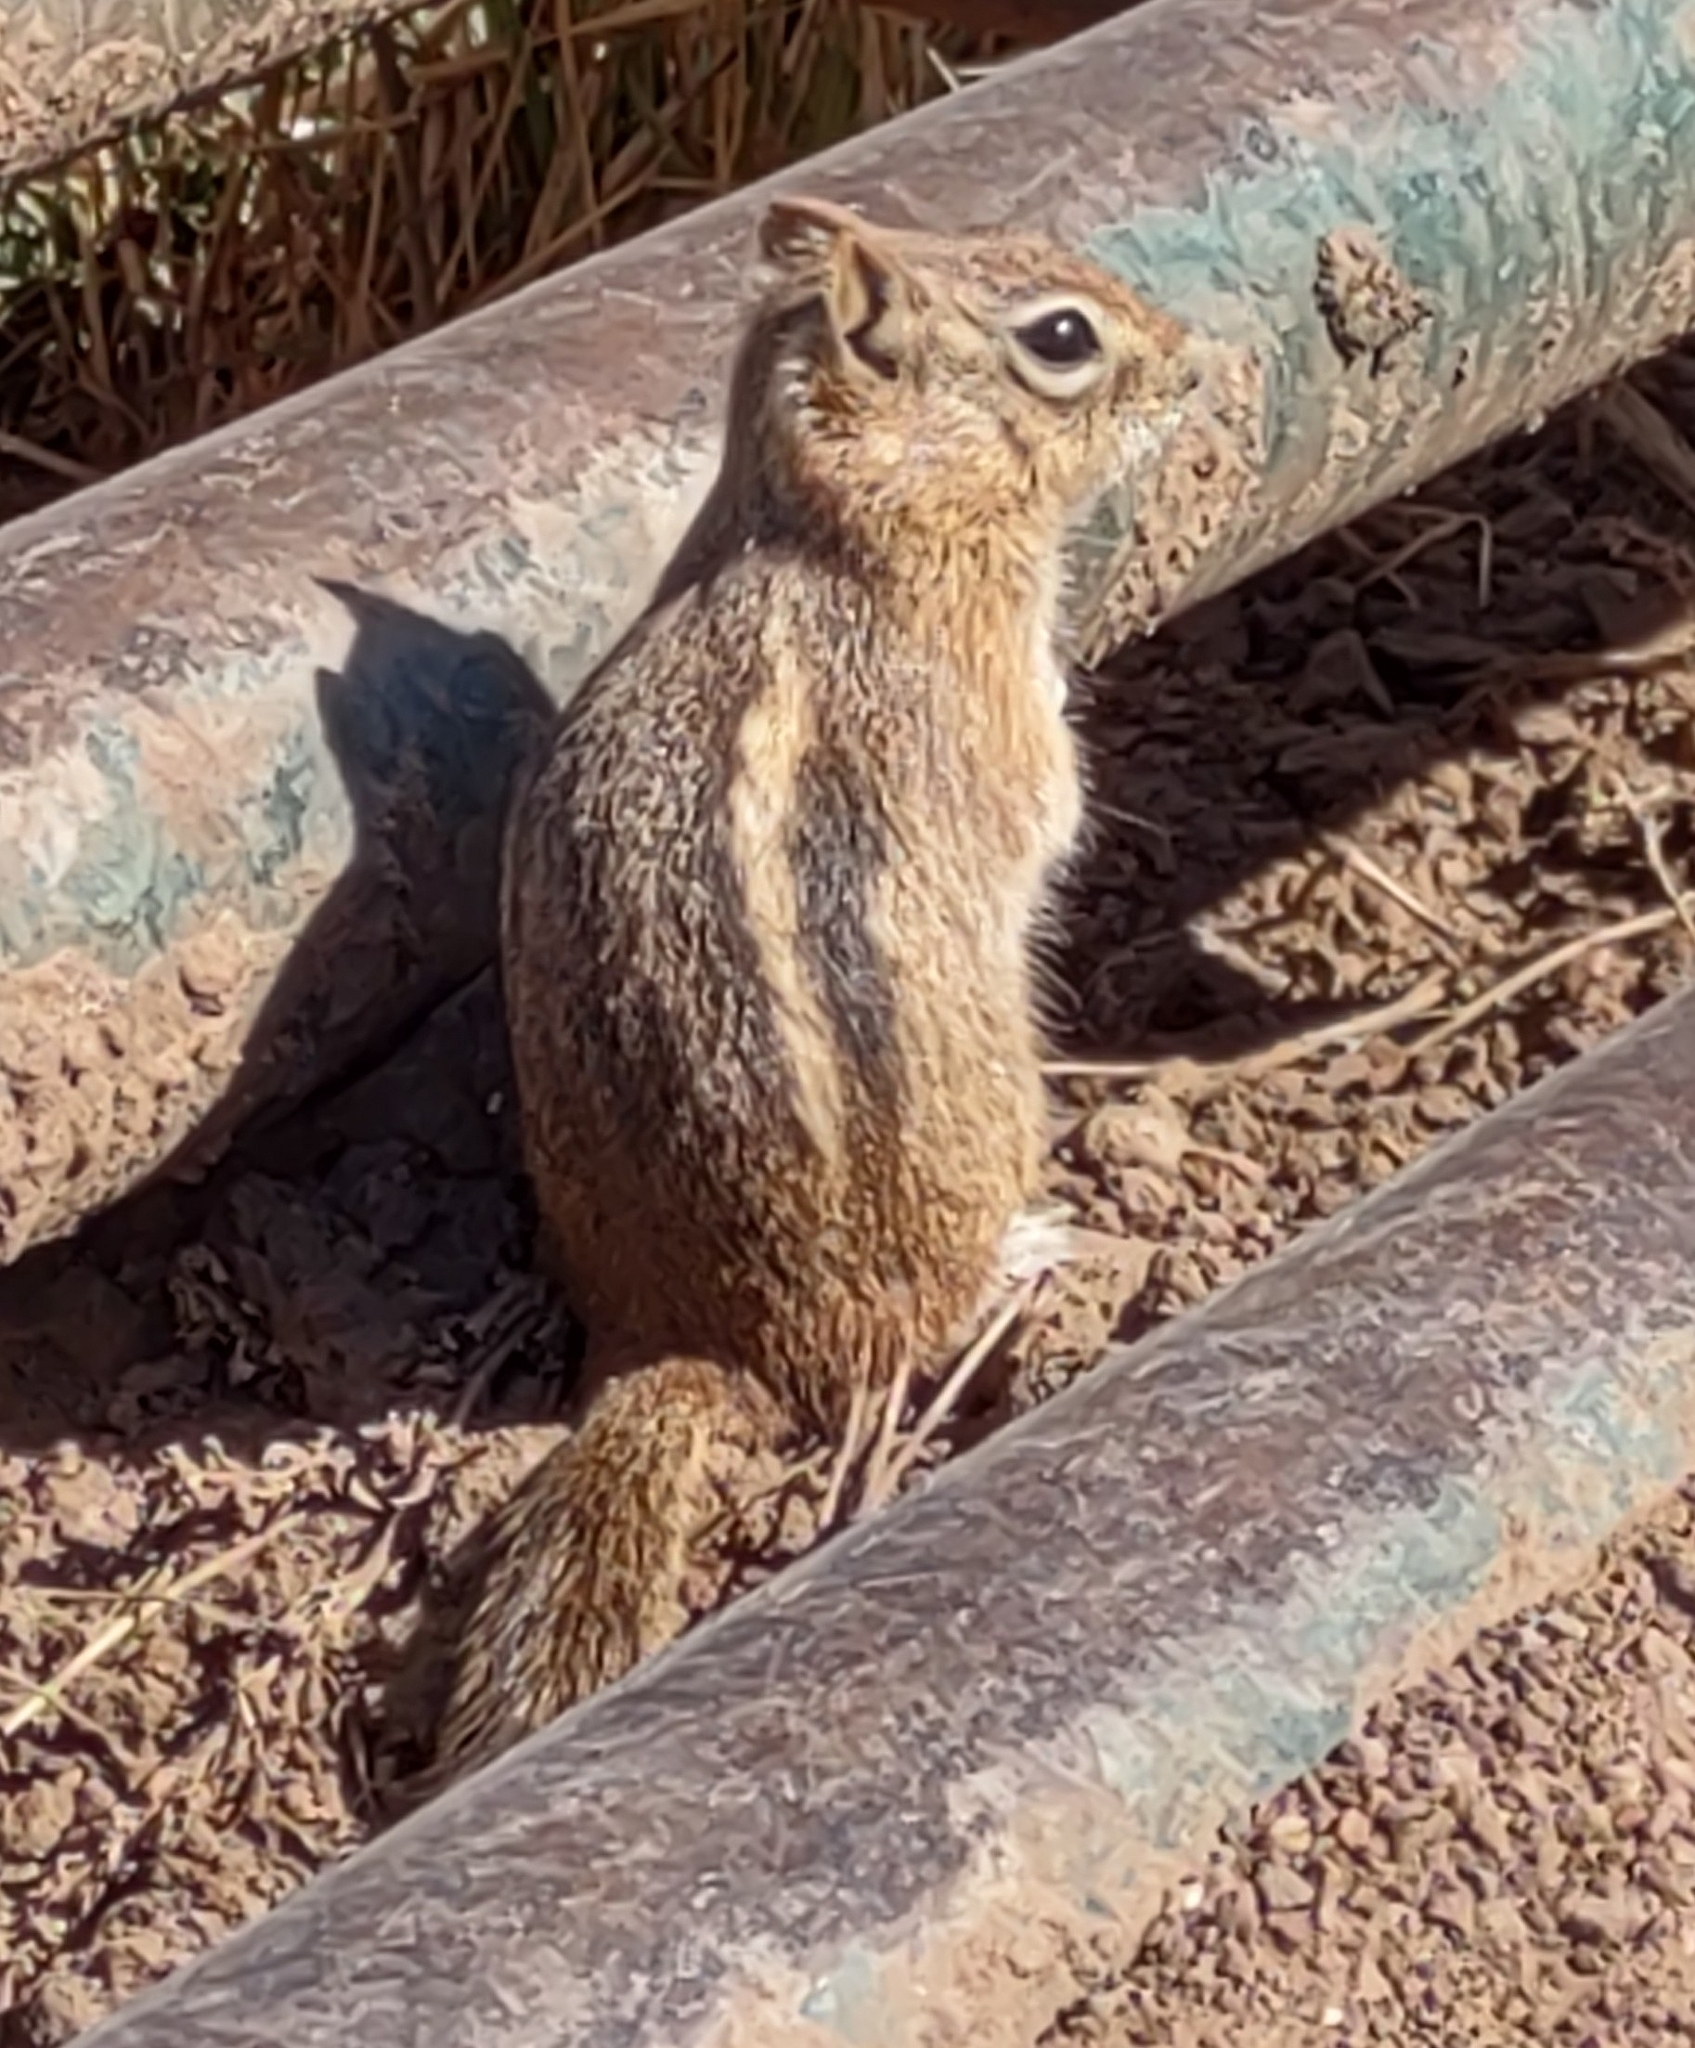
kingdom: Animalia
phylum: Chordata
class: Mammalia
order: Rodentia
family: Sciuridae
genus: Callospermophilus
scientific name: Callospermophilus lateralis
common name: Golden-mantled ground squirrel
